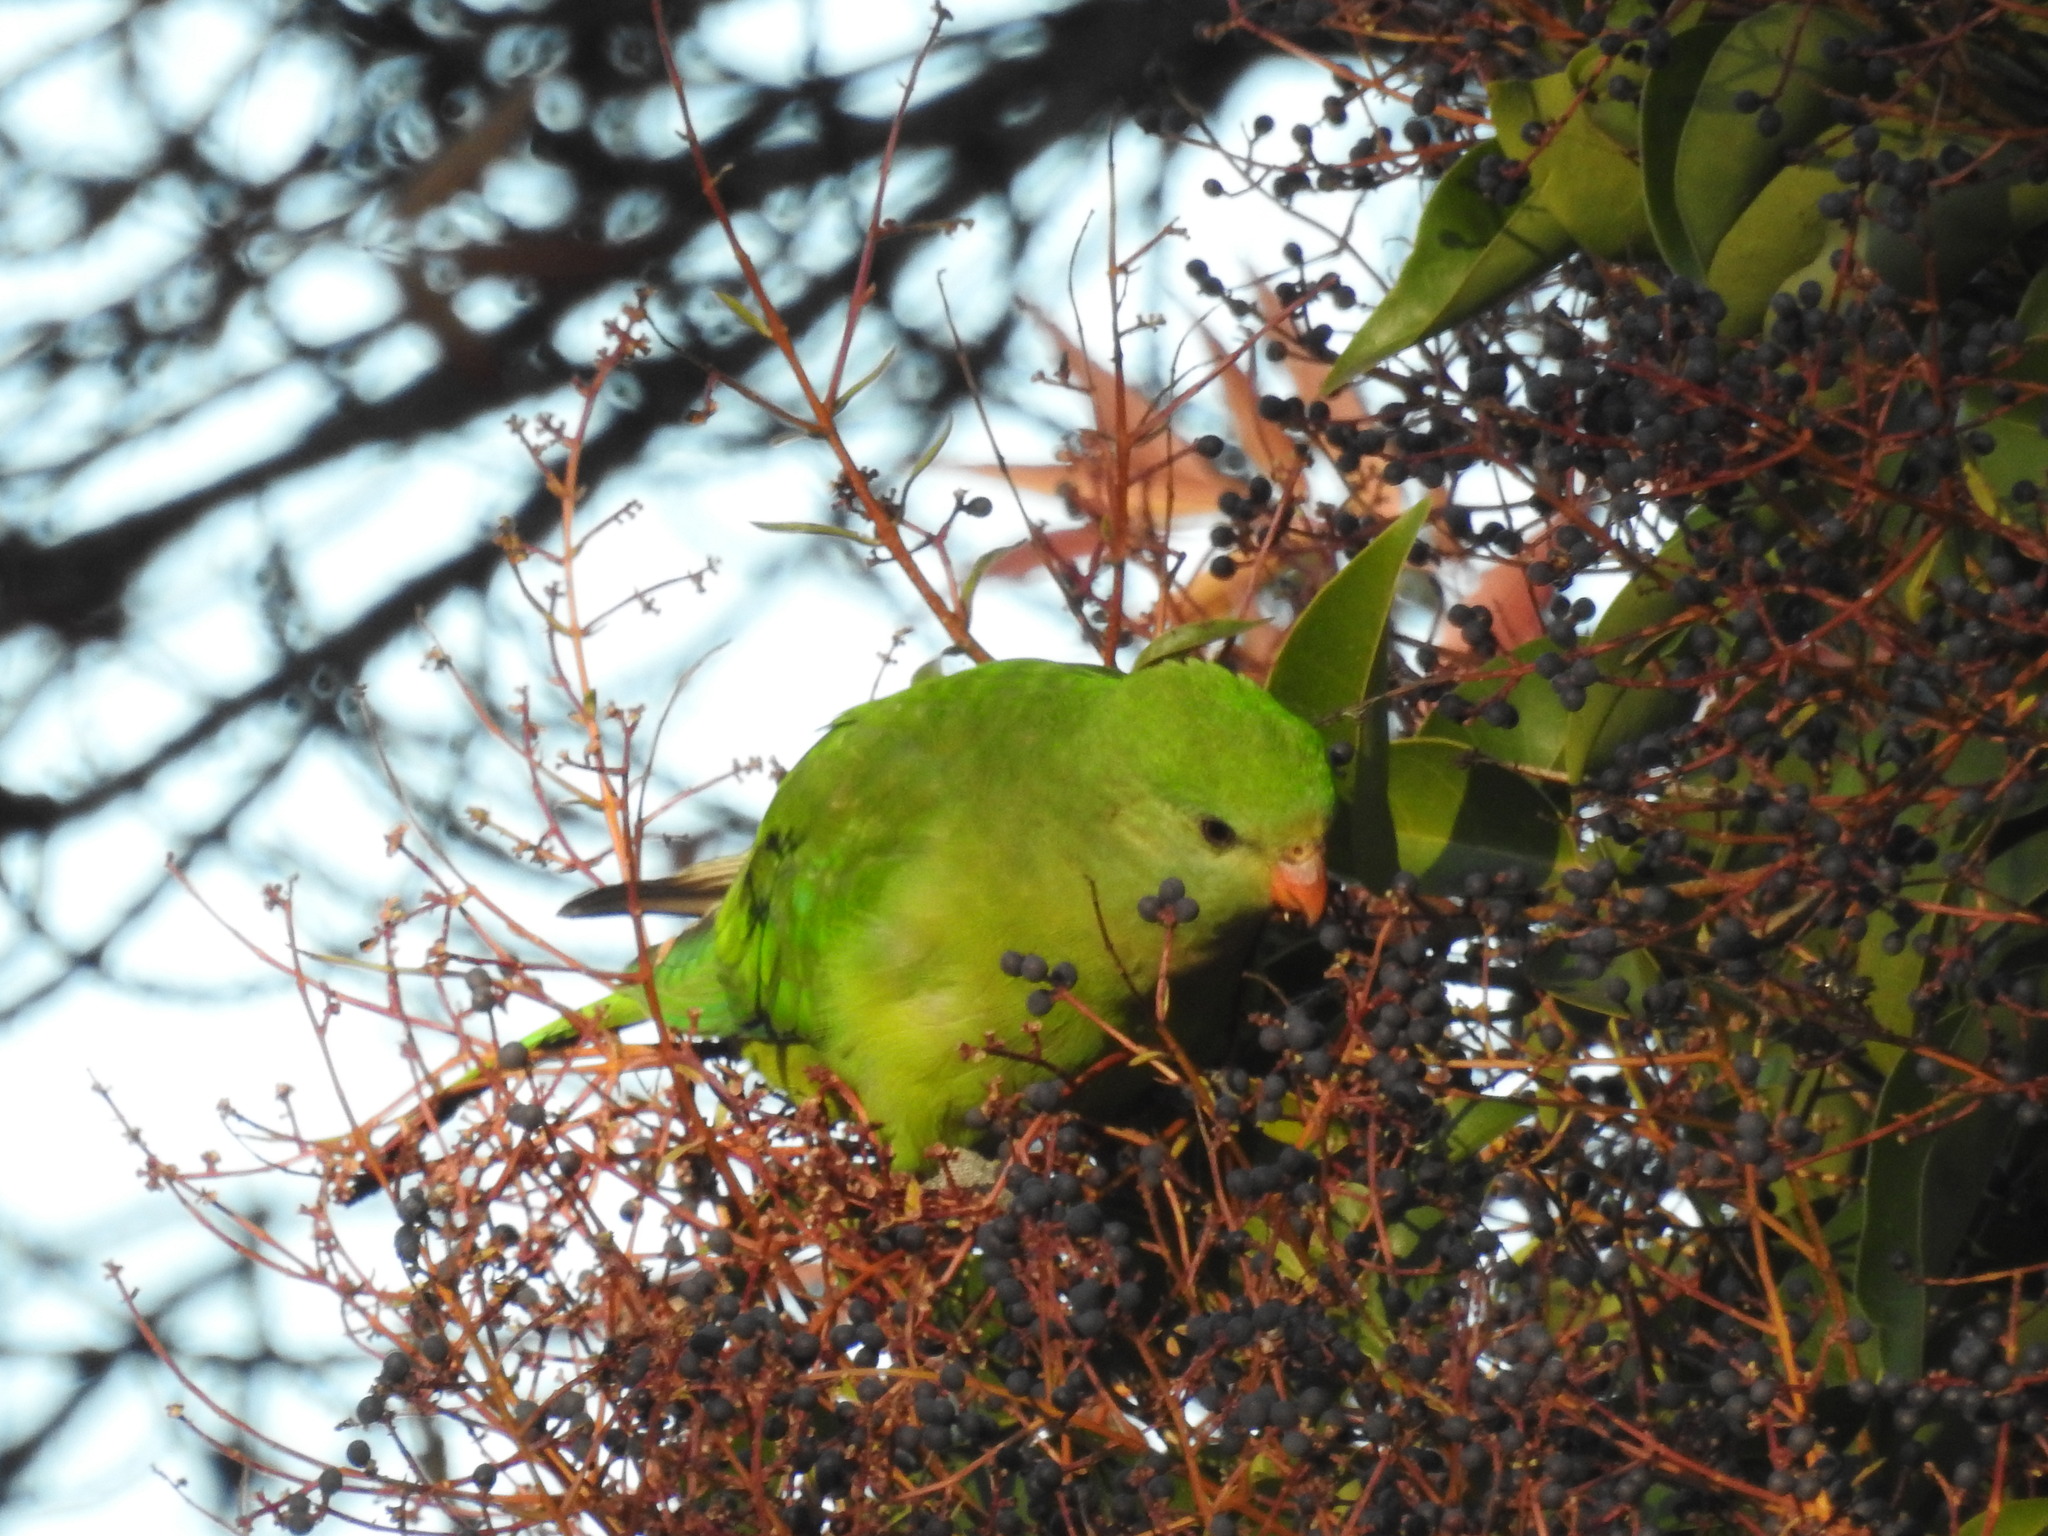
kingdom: Animalia
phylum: Chordata
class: Aves
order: Psittaciformes
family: Psittacidae
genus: Polytelis
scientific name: Polytelis swainsonii
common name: Superb parrot
